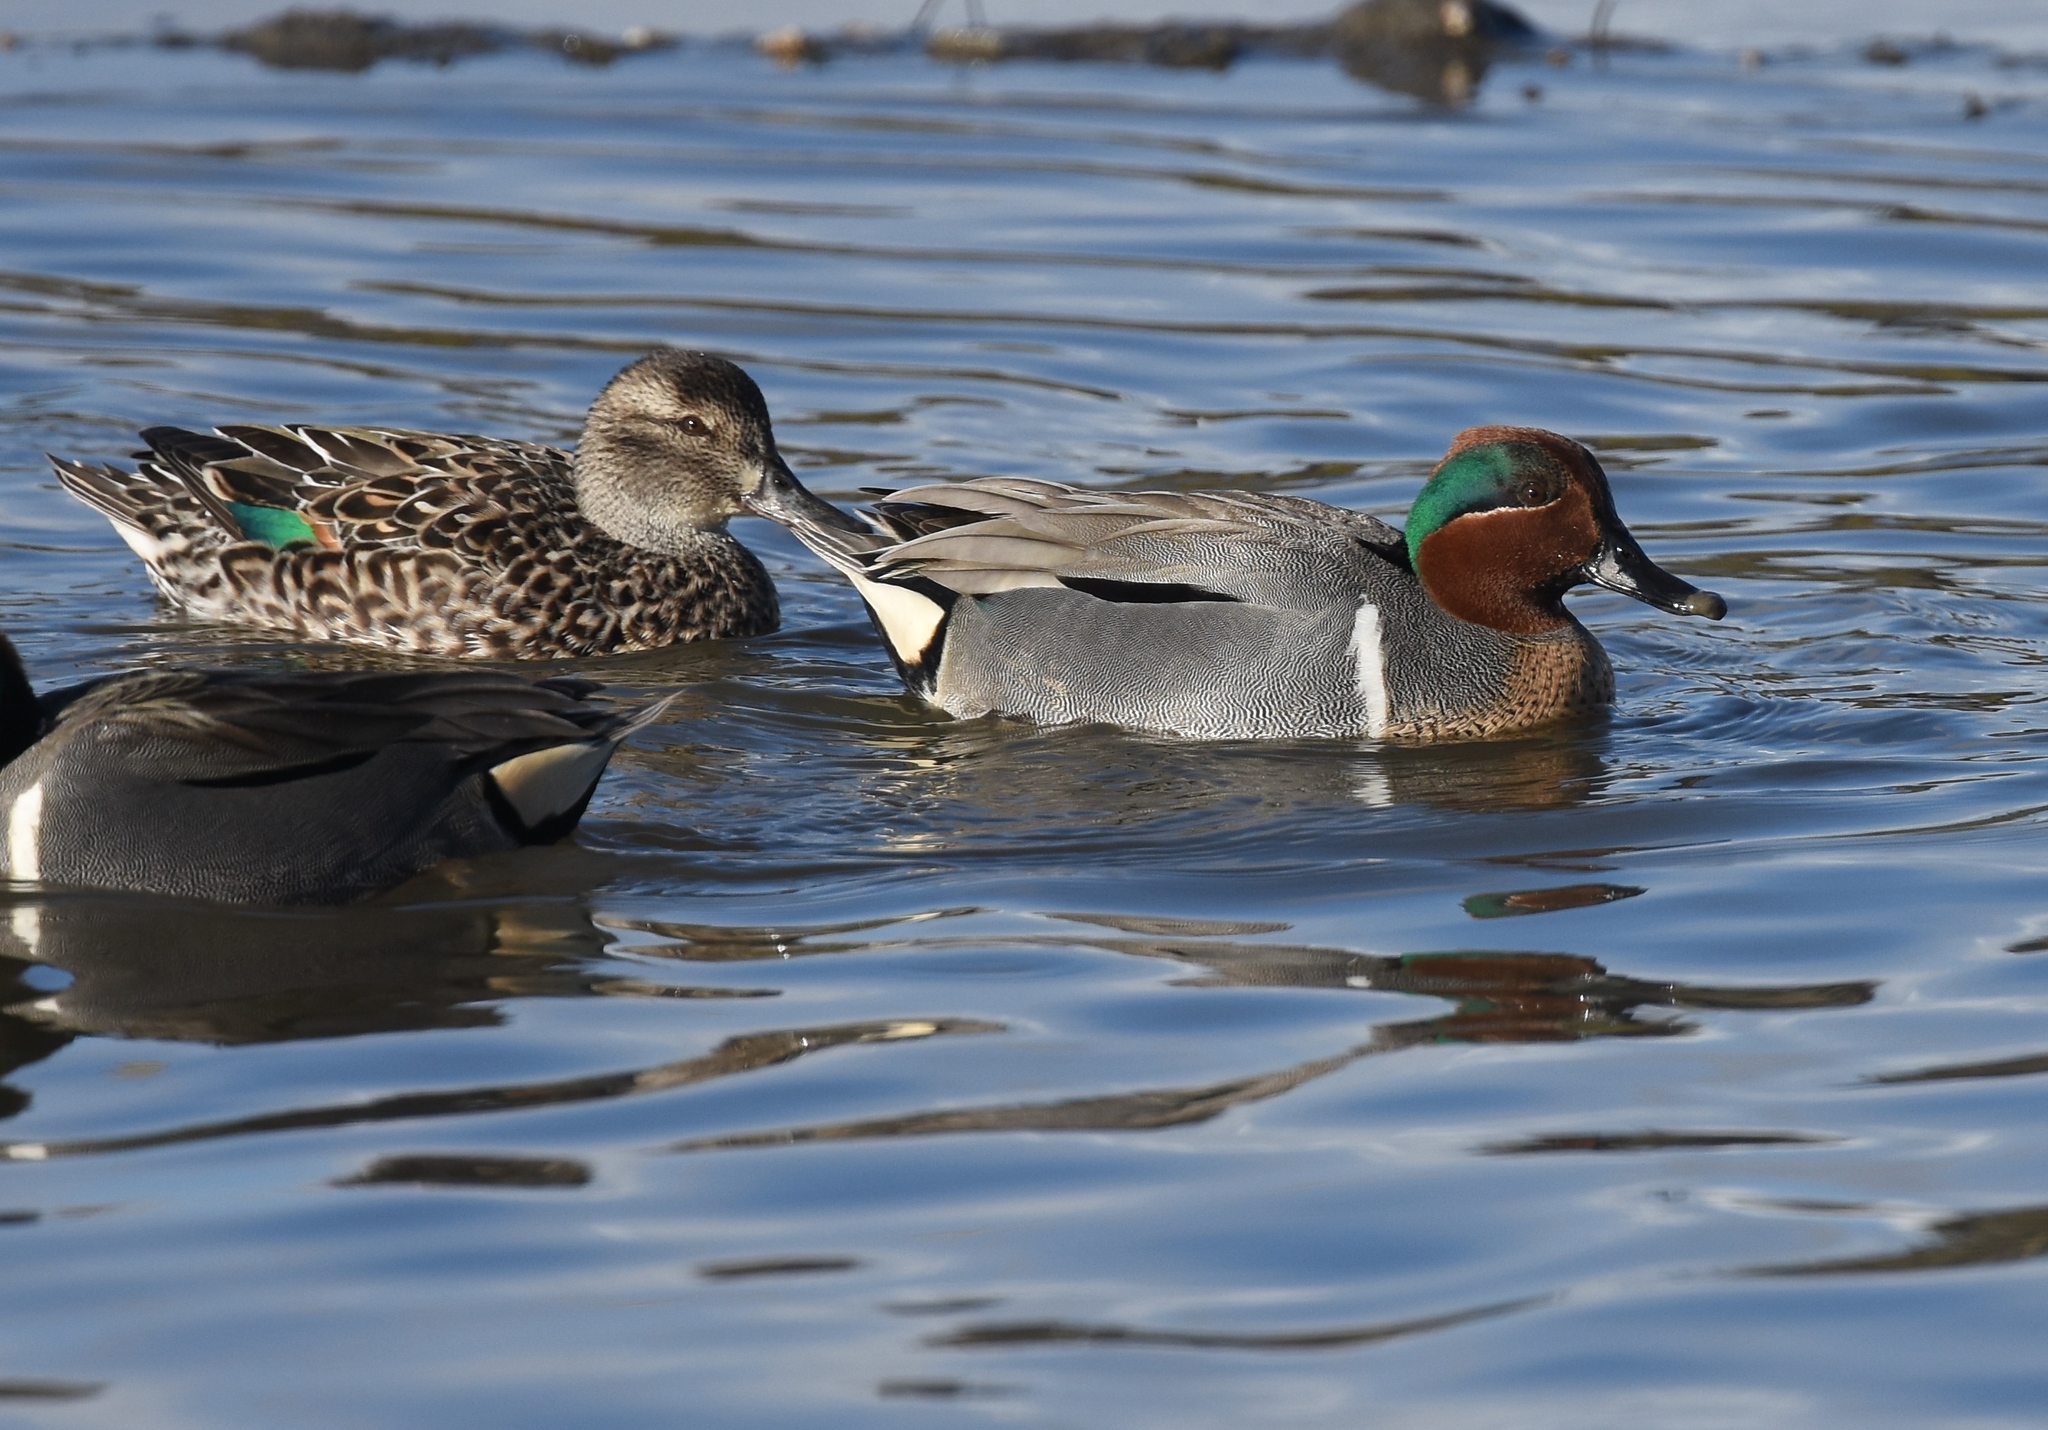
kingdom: Animalia
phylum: Chordata
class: Aves
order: Anseriformes
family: Anatidae
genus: Anas
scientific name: Anas crecca
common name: Eurasian teal
